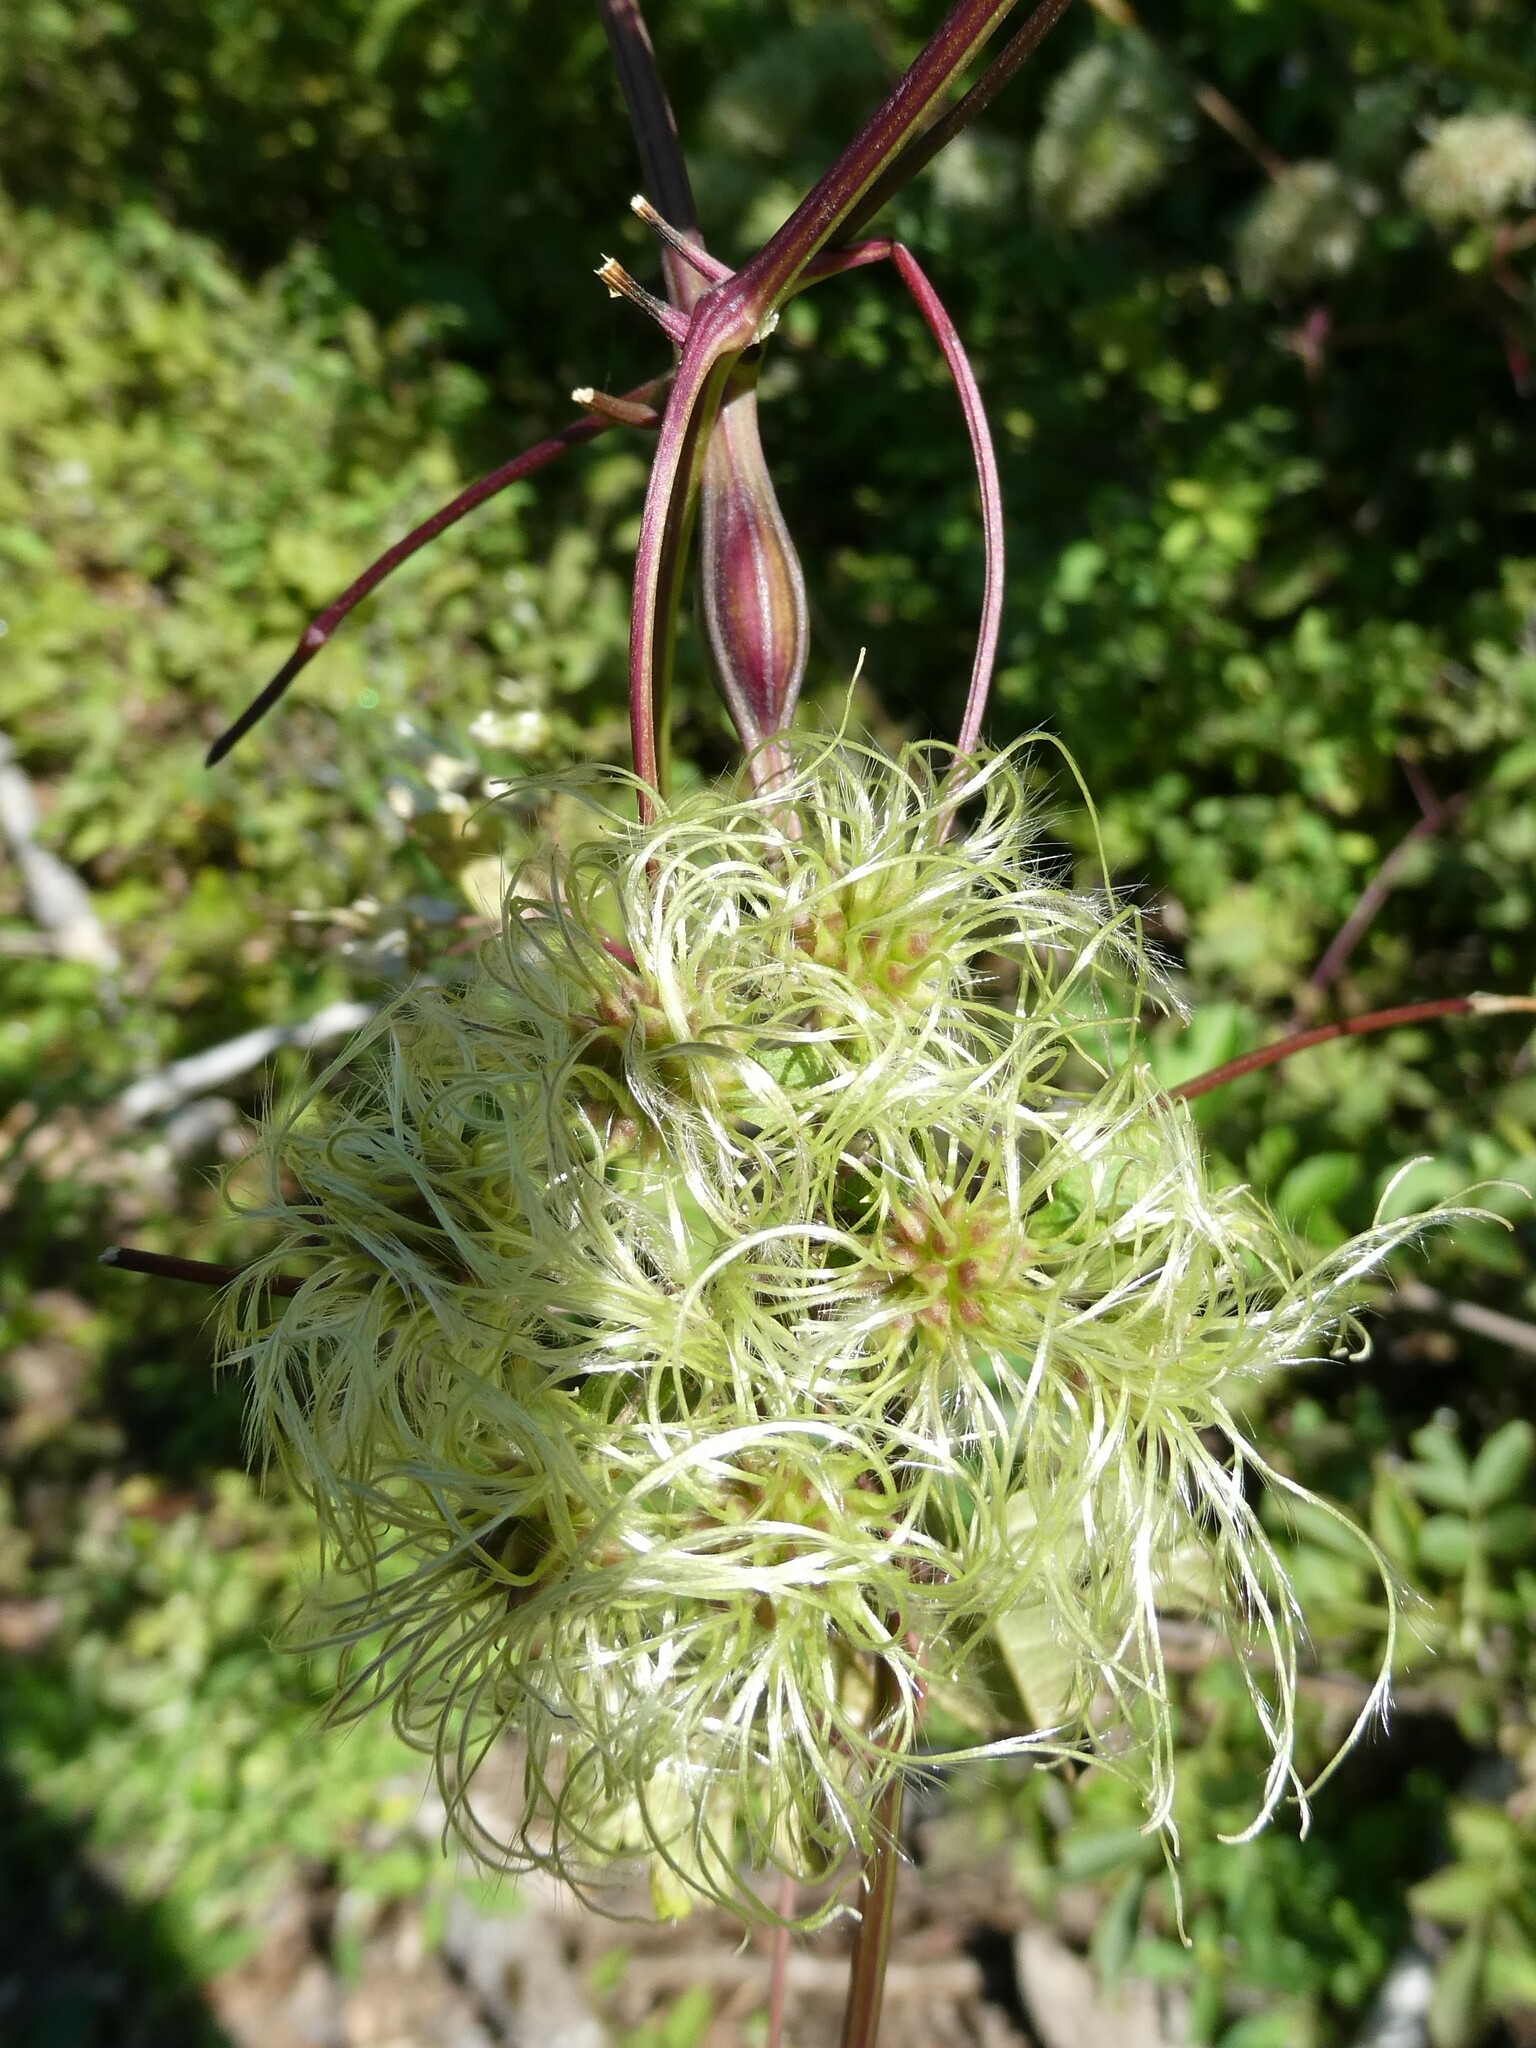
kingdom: Animalia
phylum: Arthropoda
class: Insecta
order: Diptera
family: Cecidomyiidae
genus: Neolasioptera
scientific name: Neolasioptera clematidis
